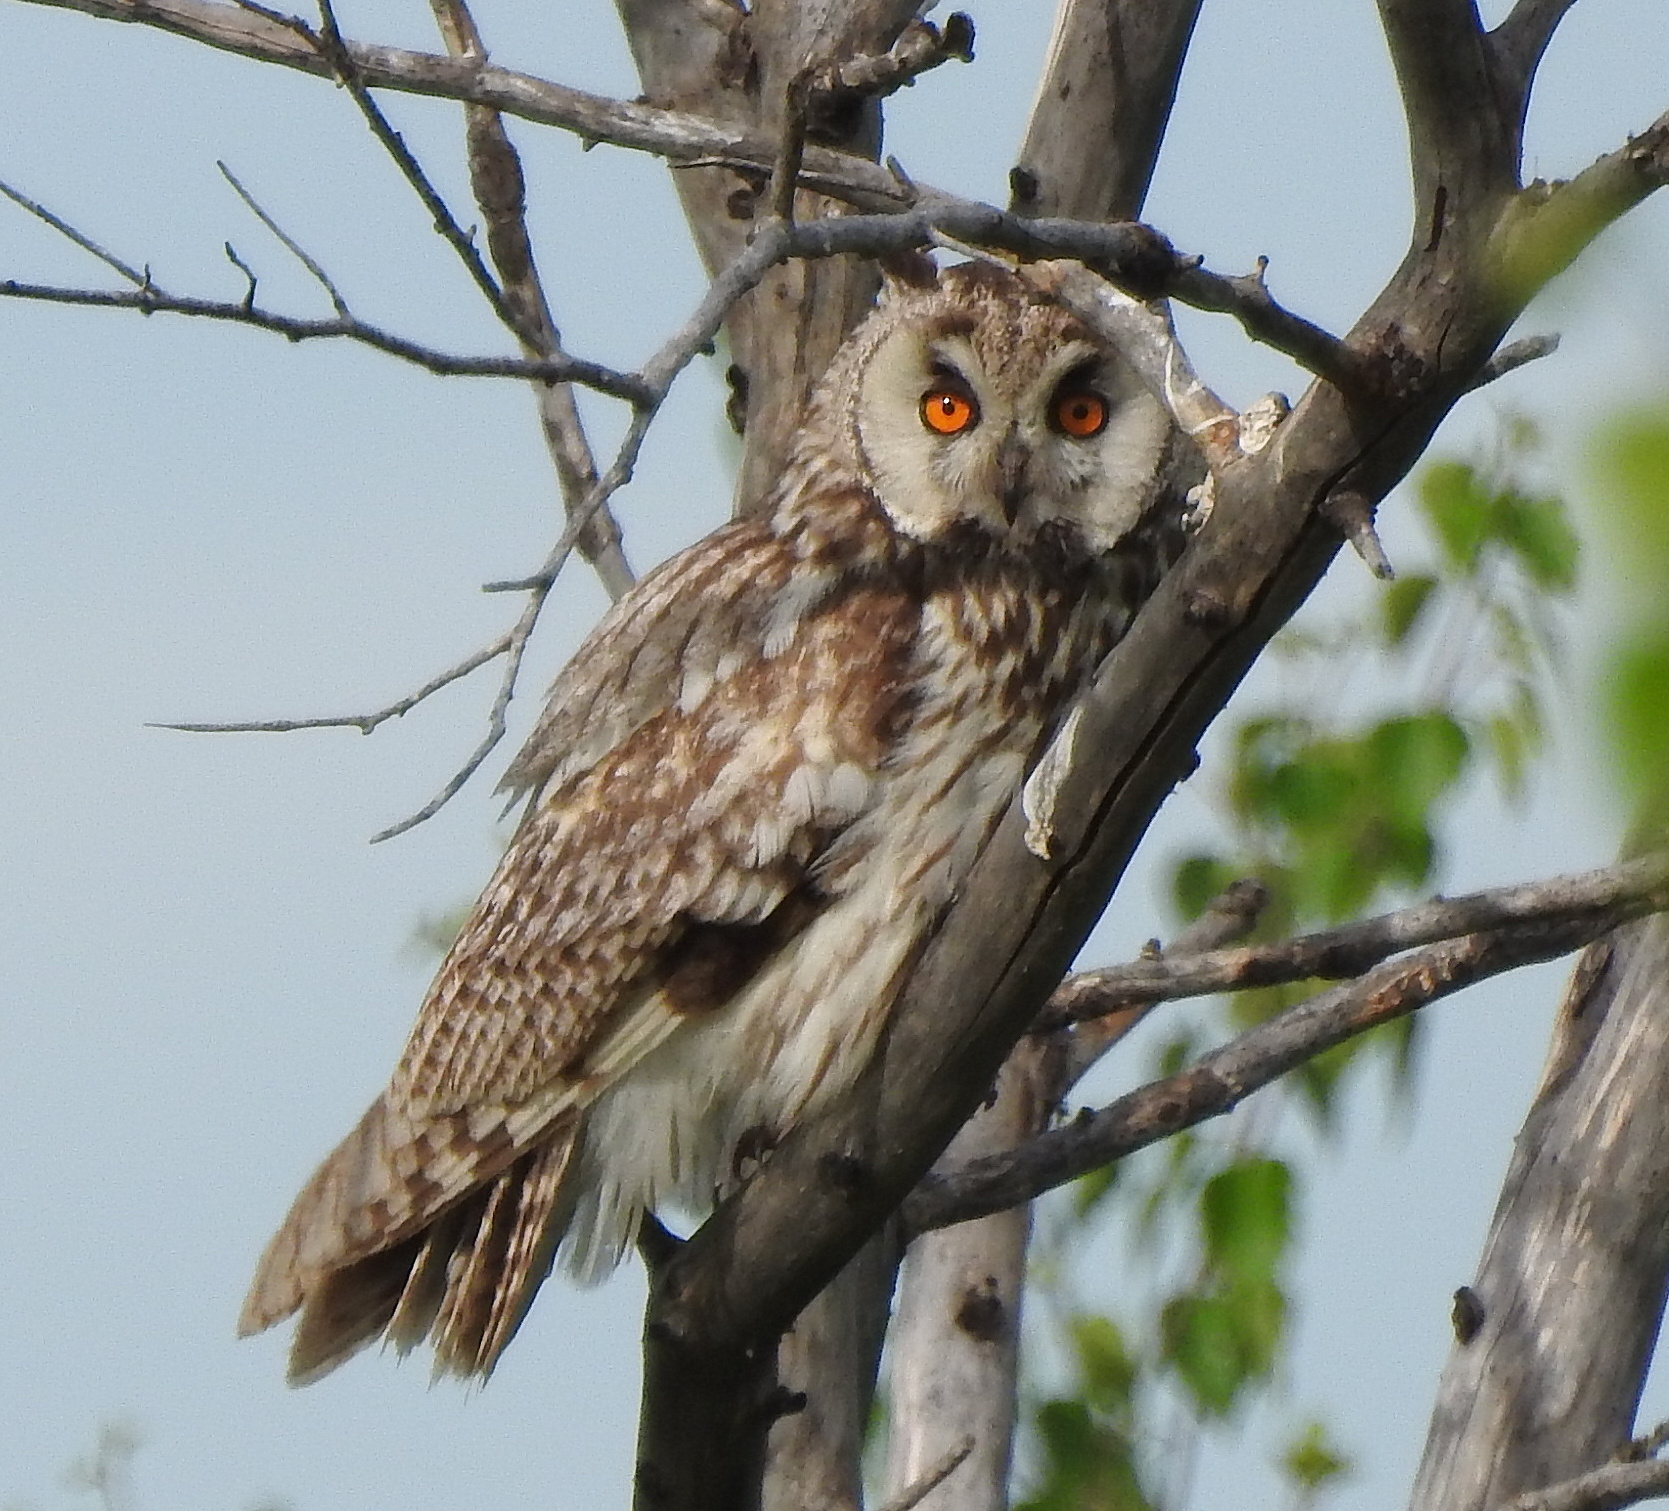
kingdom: Animalia
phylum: Chordata
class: Aves
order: Strigiformes
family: Strigidae
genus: Asio
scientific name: Asio otus
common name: Long-eared owl
